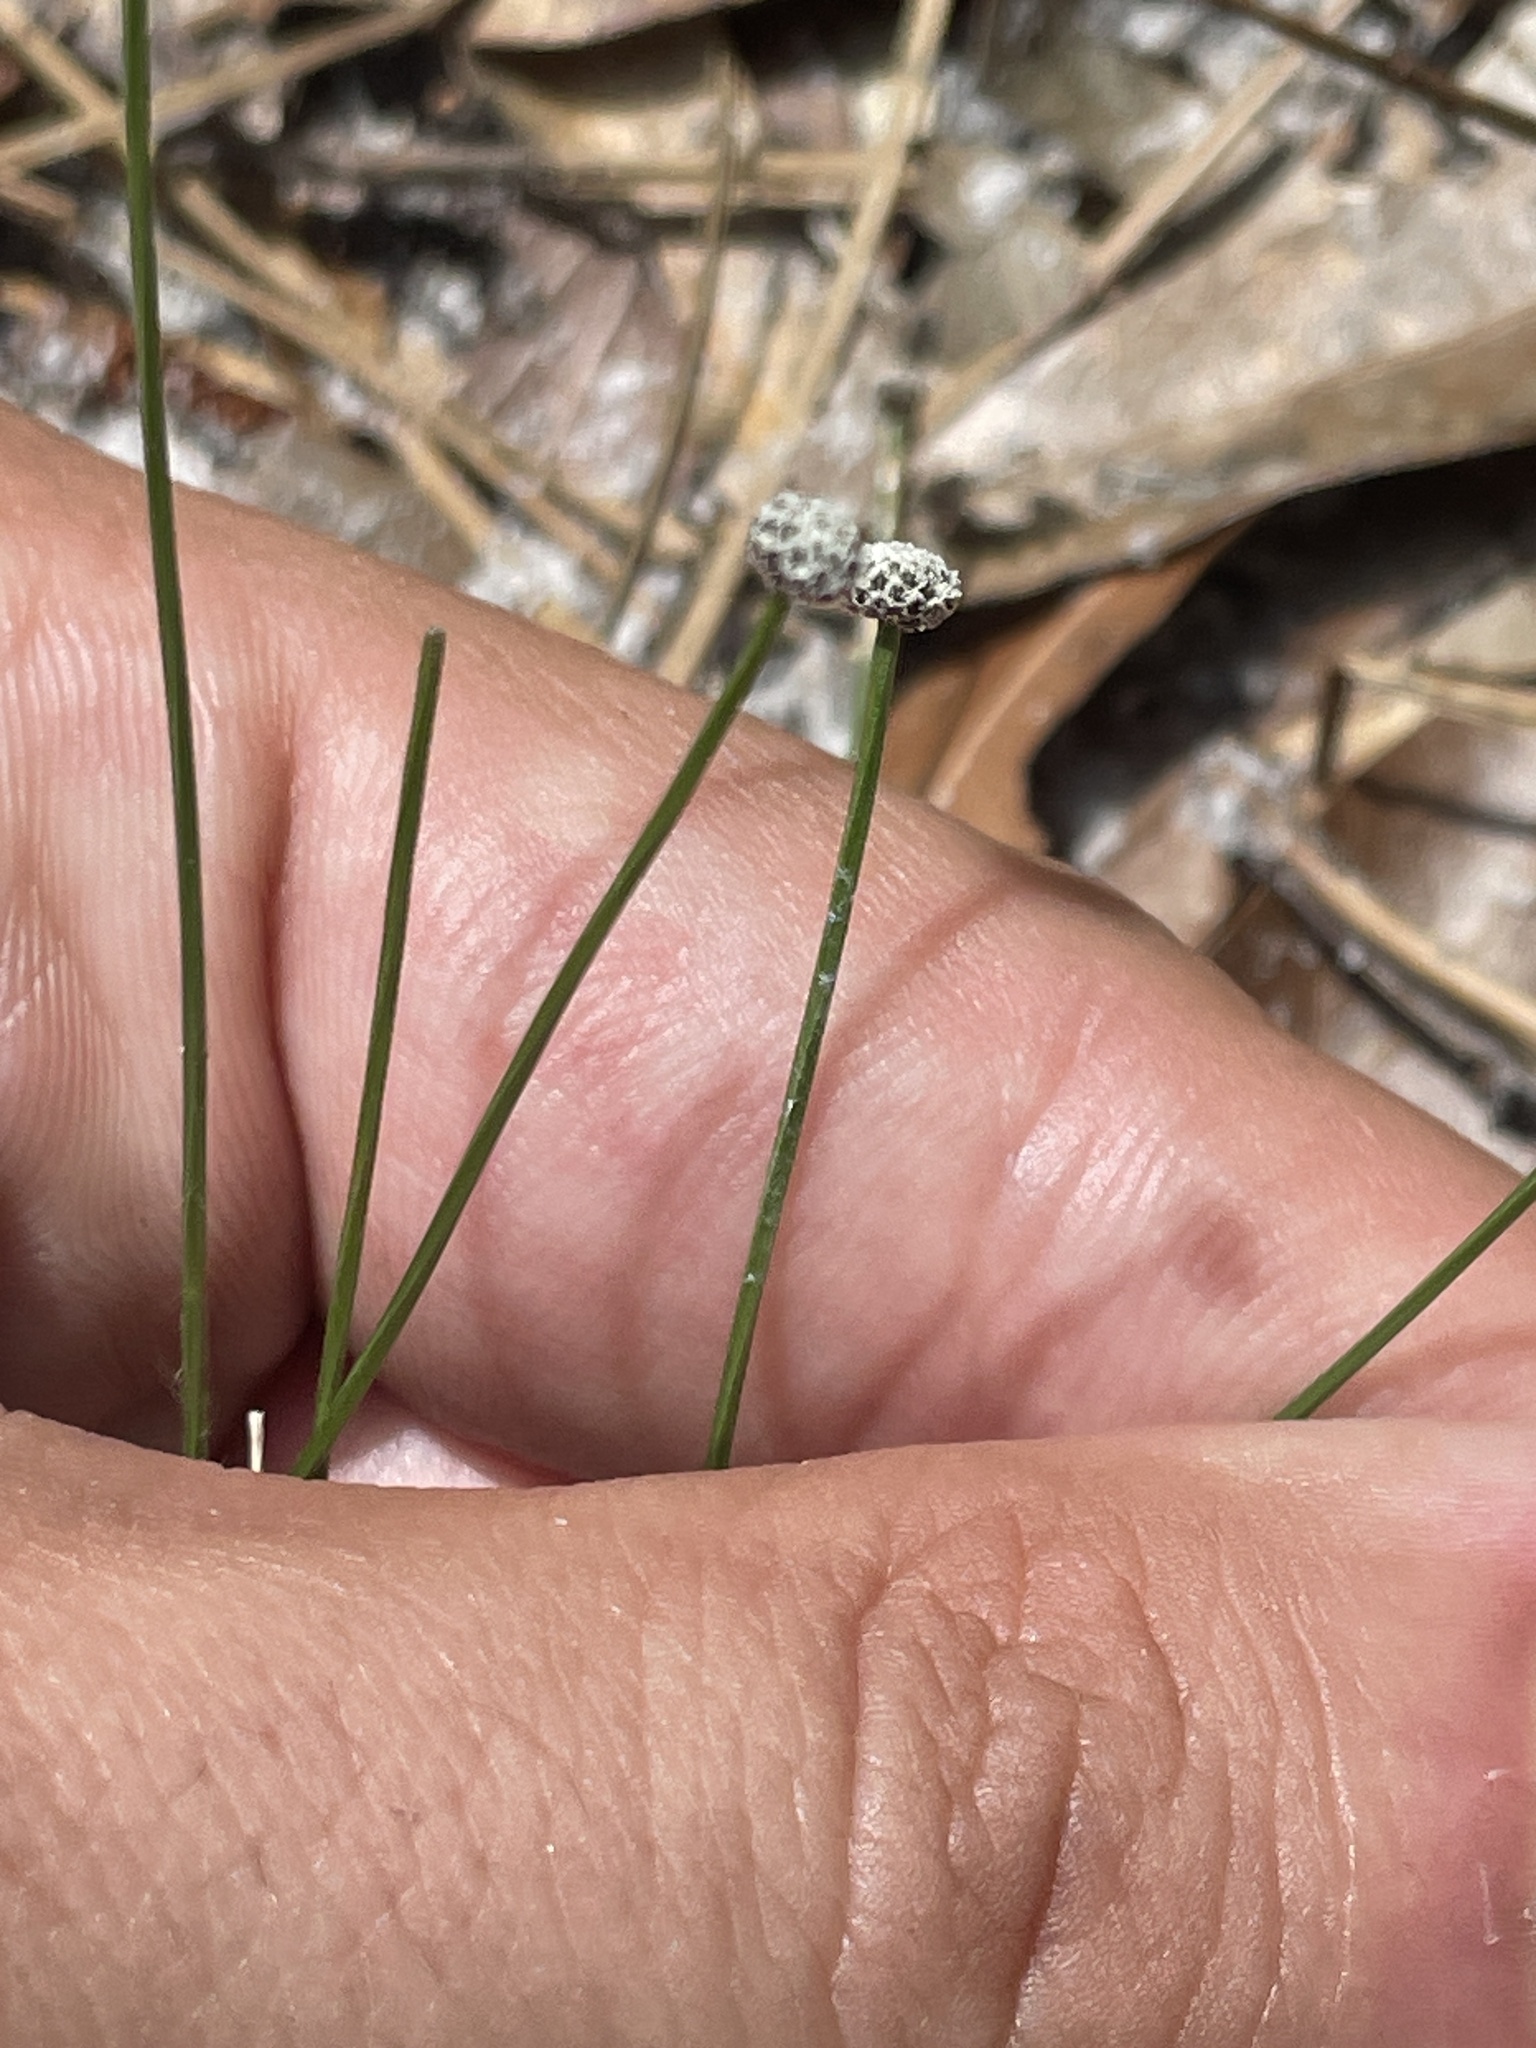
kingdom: Plantae
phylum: Tracheophyta
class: Liliopsida
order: Poales
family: Eriocaulaceae
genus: Paepalanthus
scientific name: Paepalanthus beyrichianus
